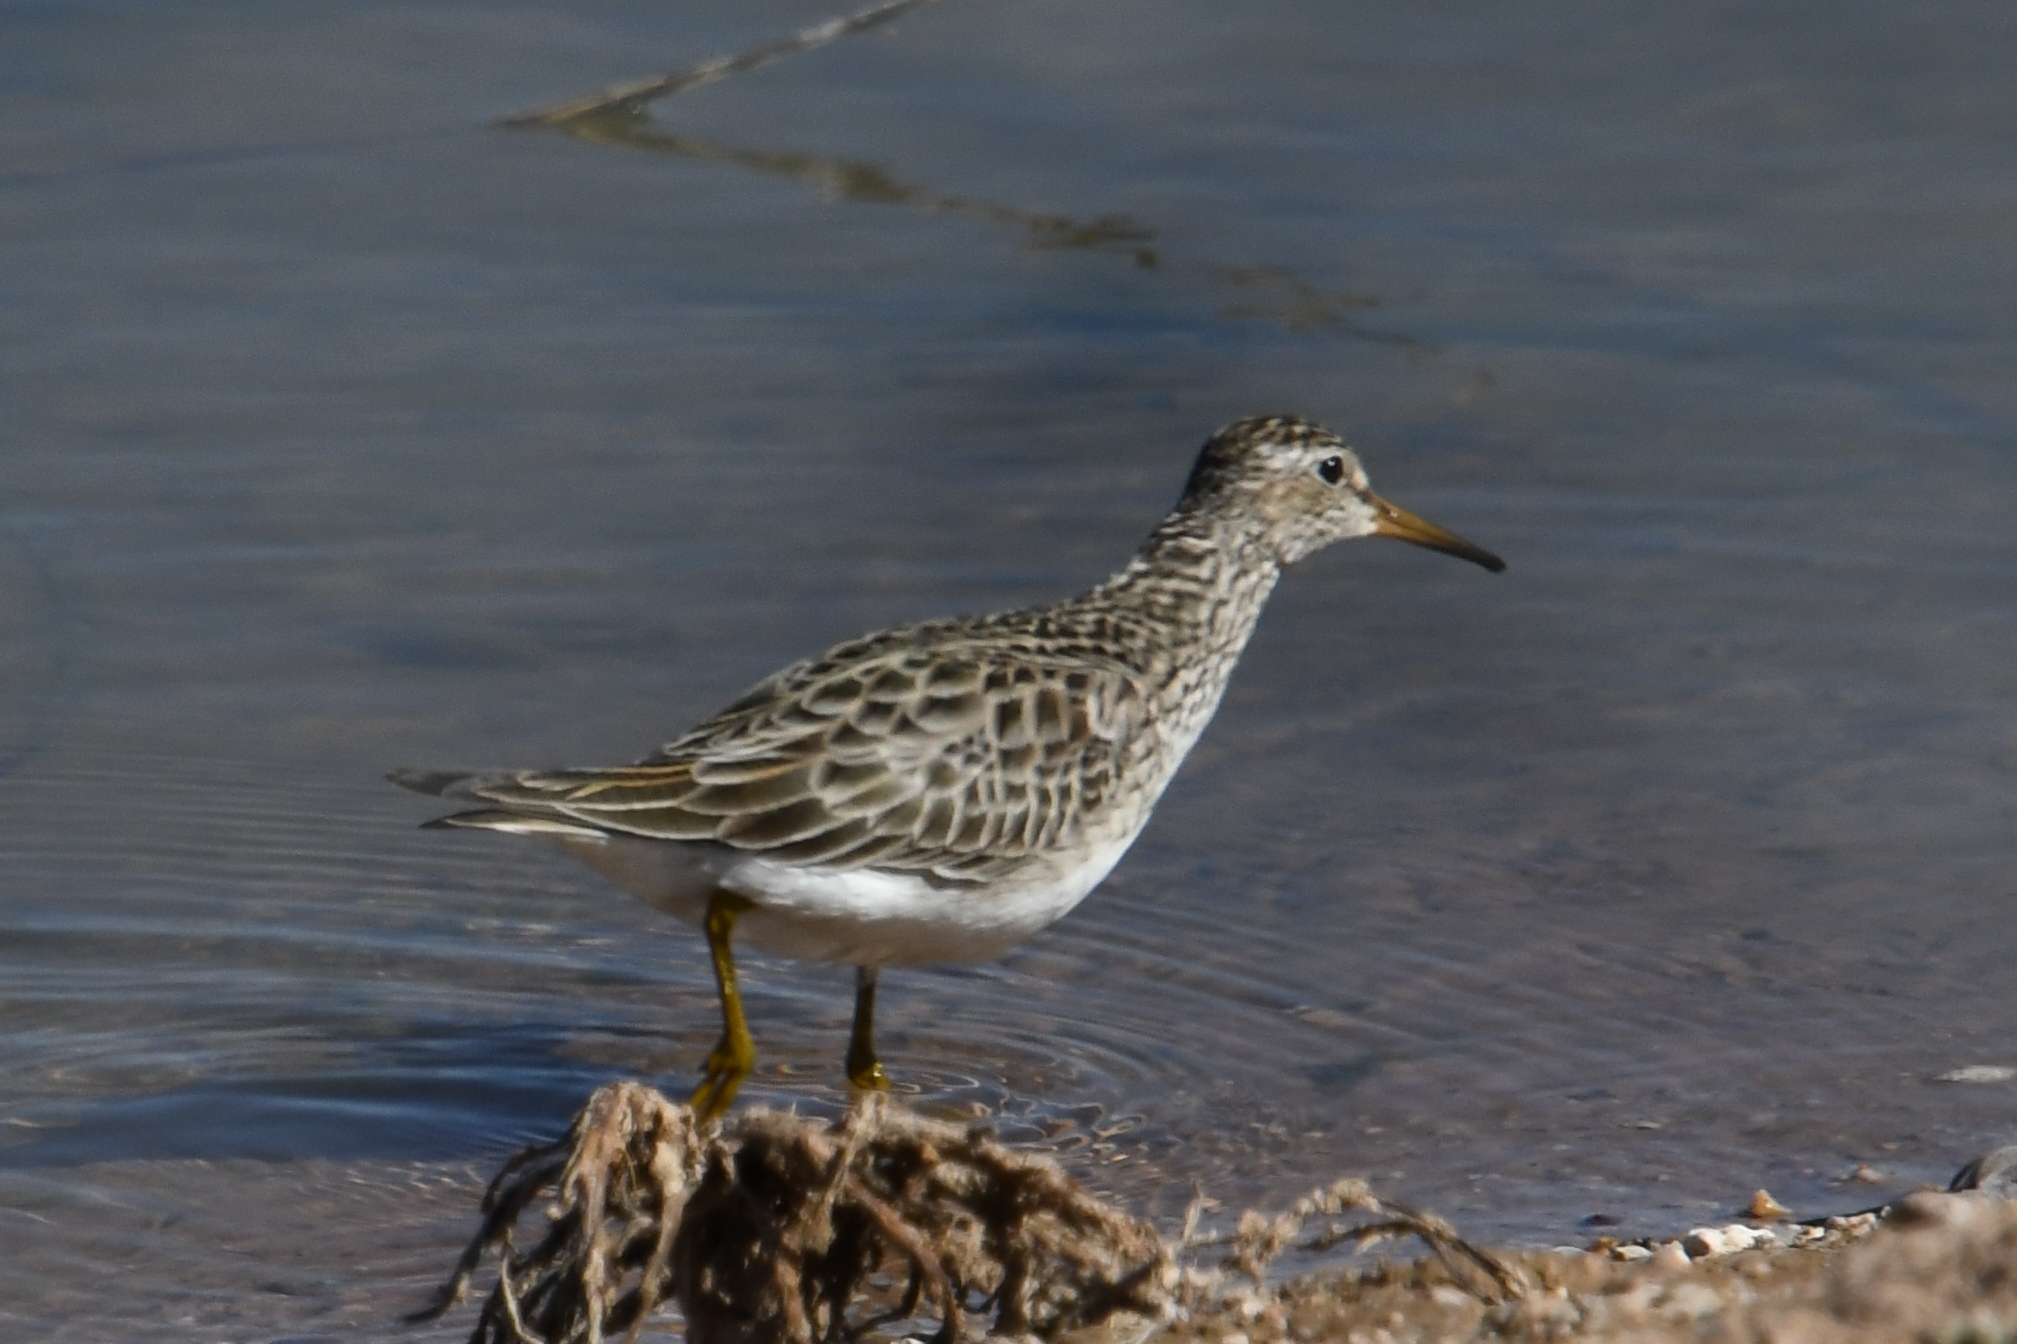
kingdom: Animalia
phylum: Chordata
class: Aves
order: Charadriiformes
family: Scolopacidae
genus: Calidris
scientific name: Calidris melanotos
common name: Pectoral sandpiper
